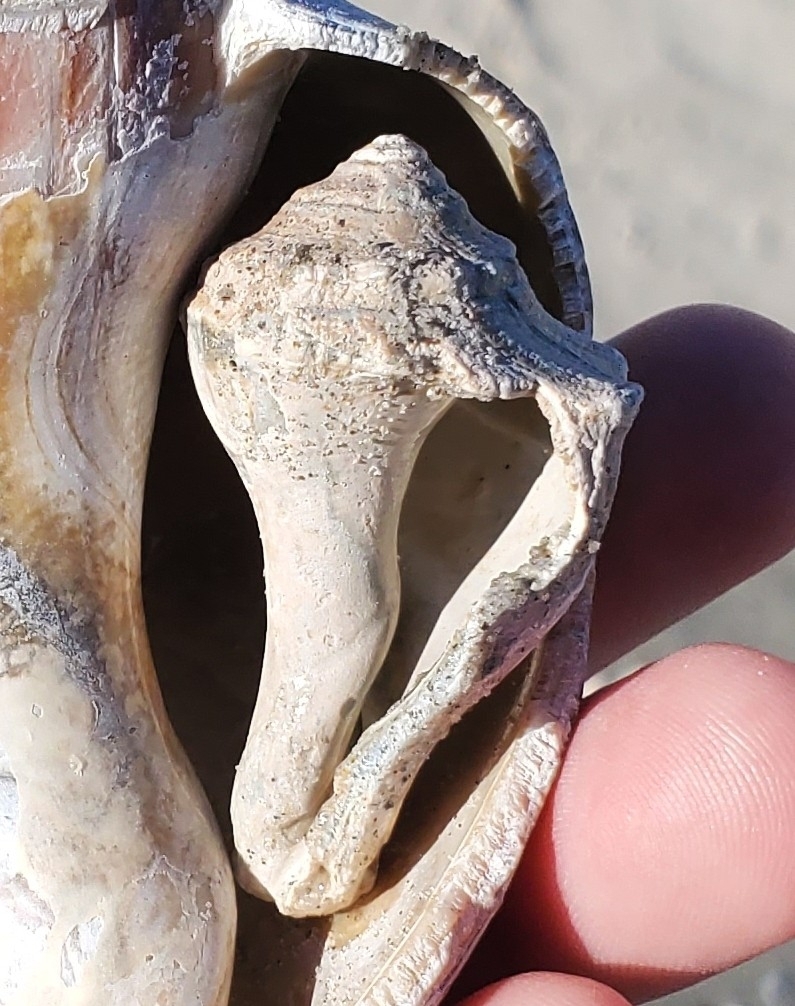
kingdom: Animalia
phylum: Mollusca
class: Gastropoda
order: Neogastropoda
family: Busyconidae
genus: Busycon
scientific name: Busycon carica
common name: Knobbed whelk
